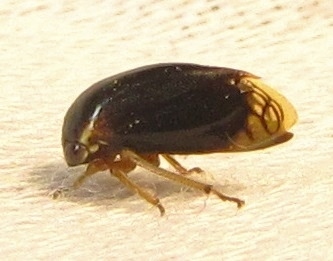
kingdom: Animalia
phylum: Arthropoda
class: Insecta
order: Hemiptera
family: Membracidae
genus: Acutalis
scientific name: Acutalis tartarea
